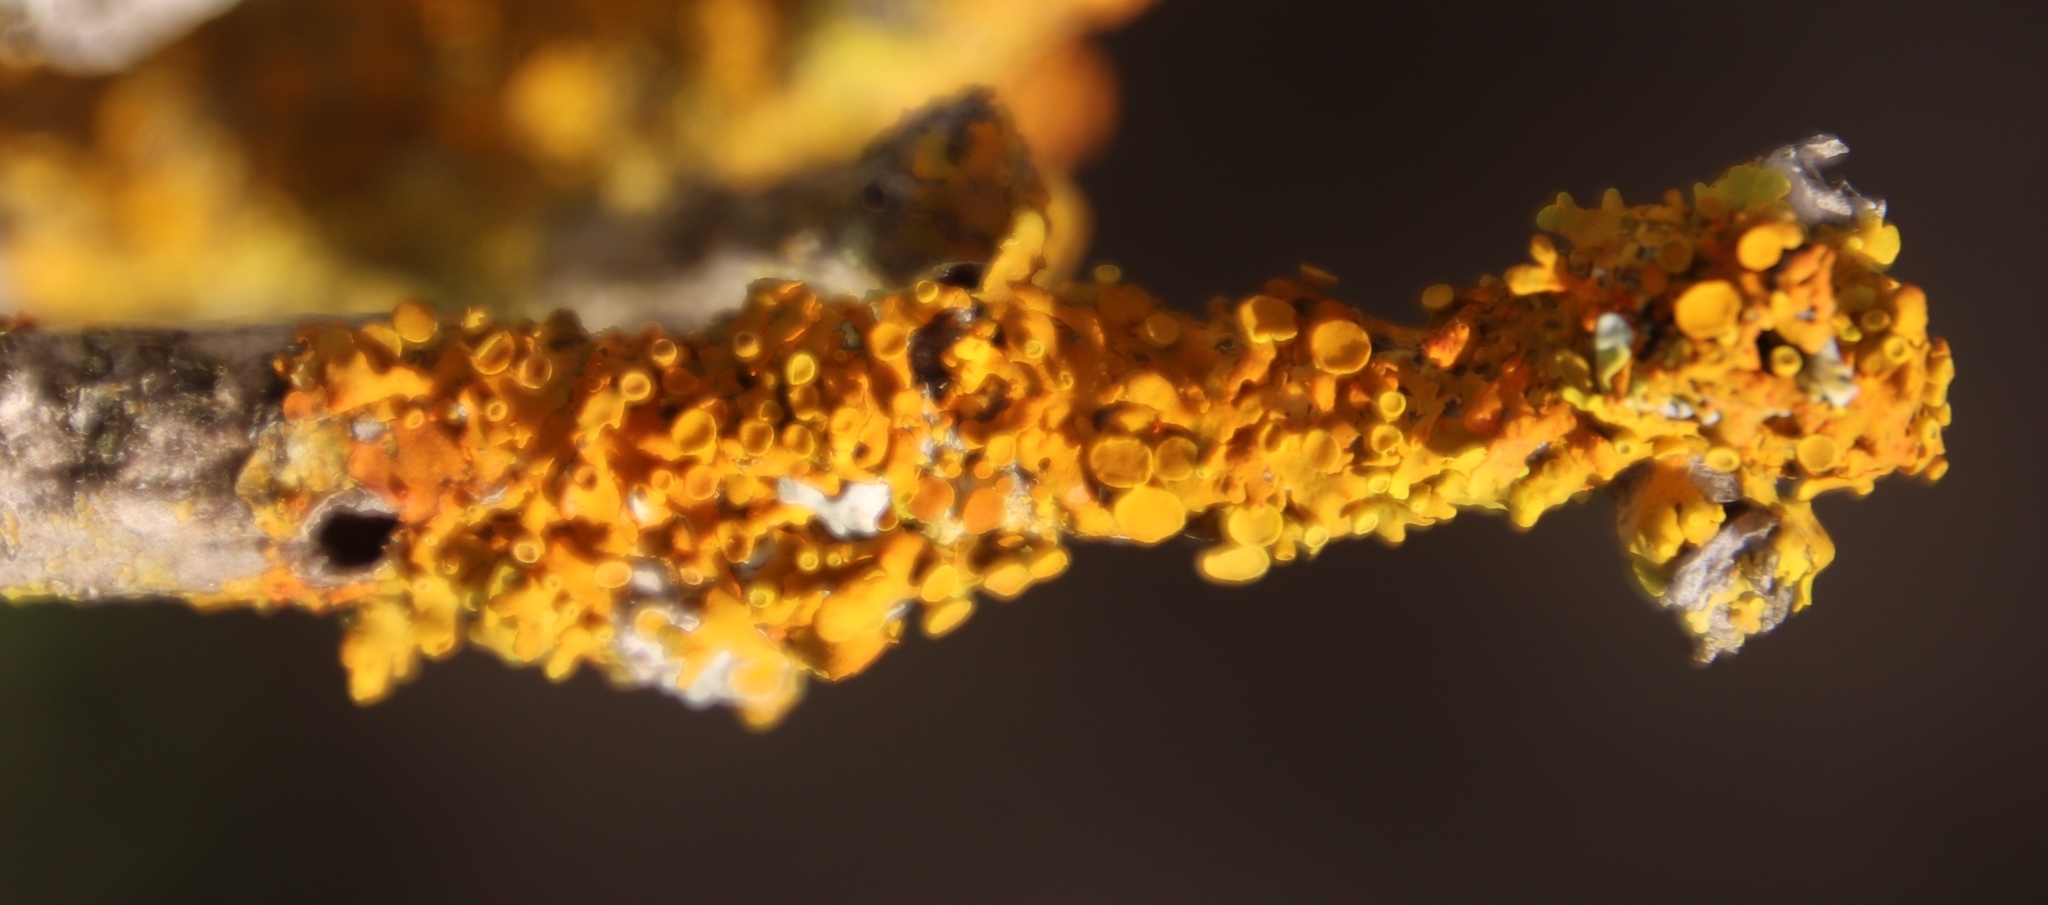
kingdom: Fungi
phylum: Ascomycota
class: Lecanoromycetes
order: Teloschistales
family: Teloschistaceae
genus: Dufourea
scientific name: Dufourea turbinata
